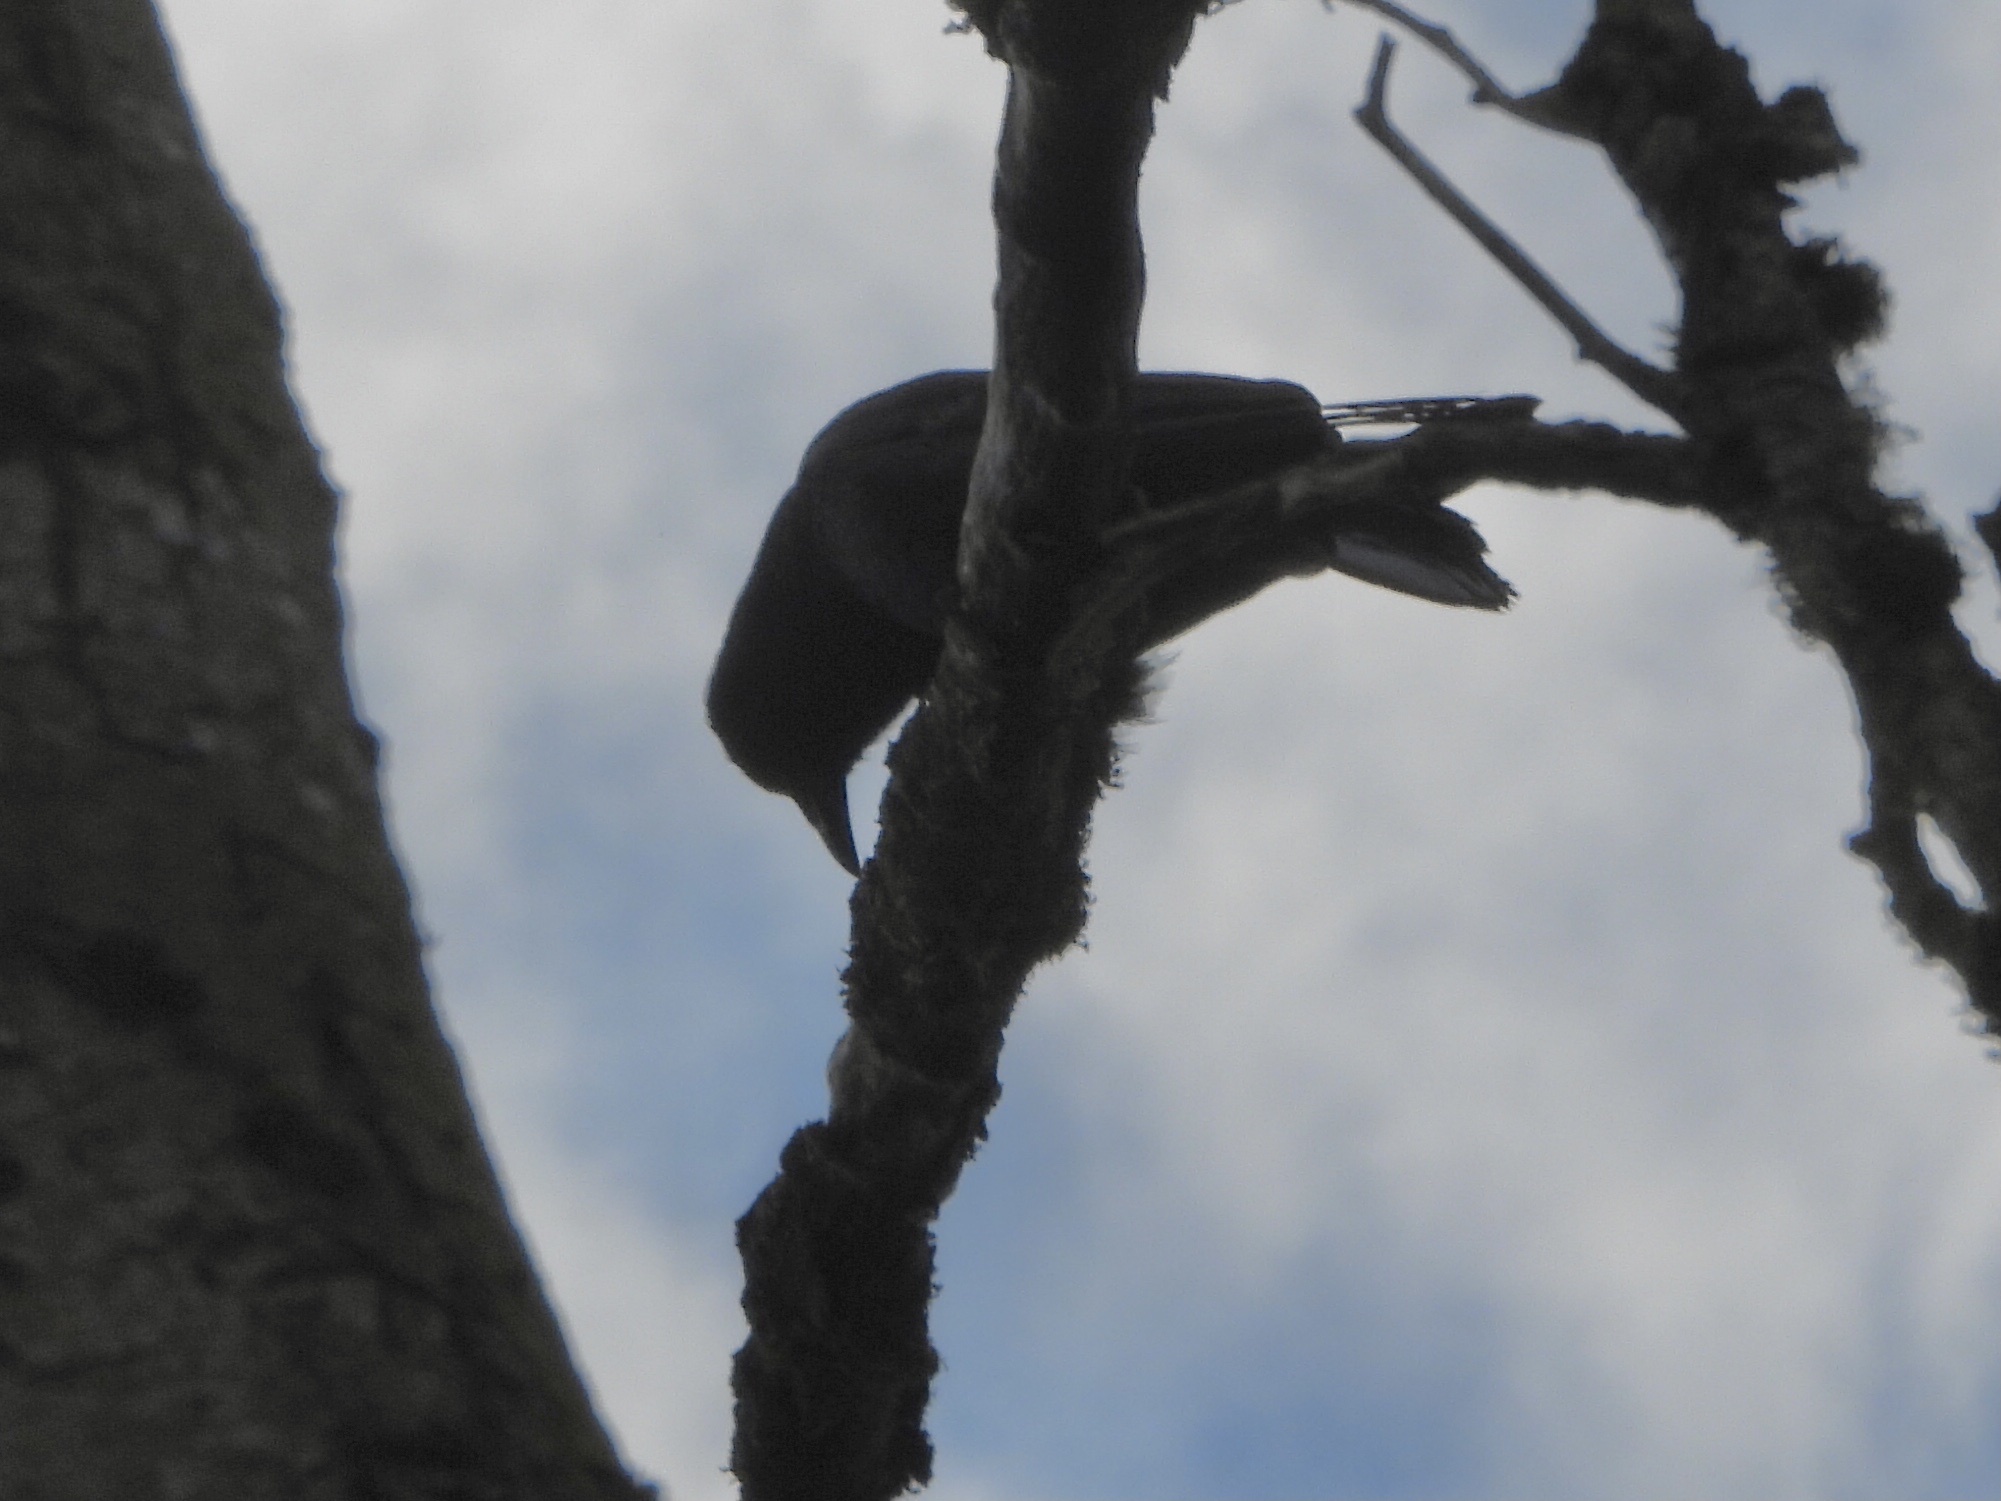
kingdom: Animalia
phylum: Chordata
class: Aves
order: Passeriformes
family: Corvidae
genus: Corvus
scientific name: Corvus brachyrhynchos
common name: American crow
